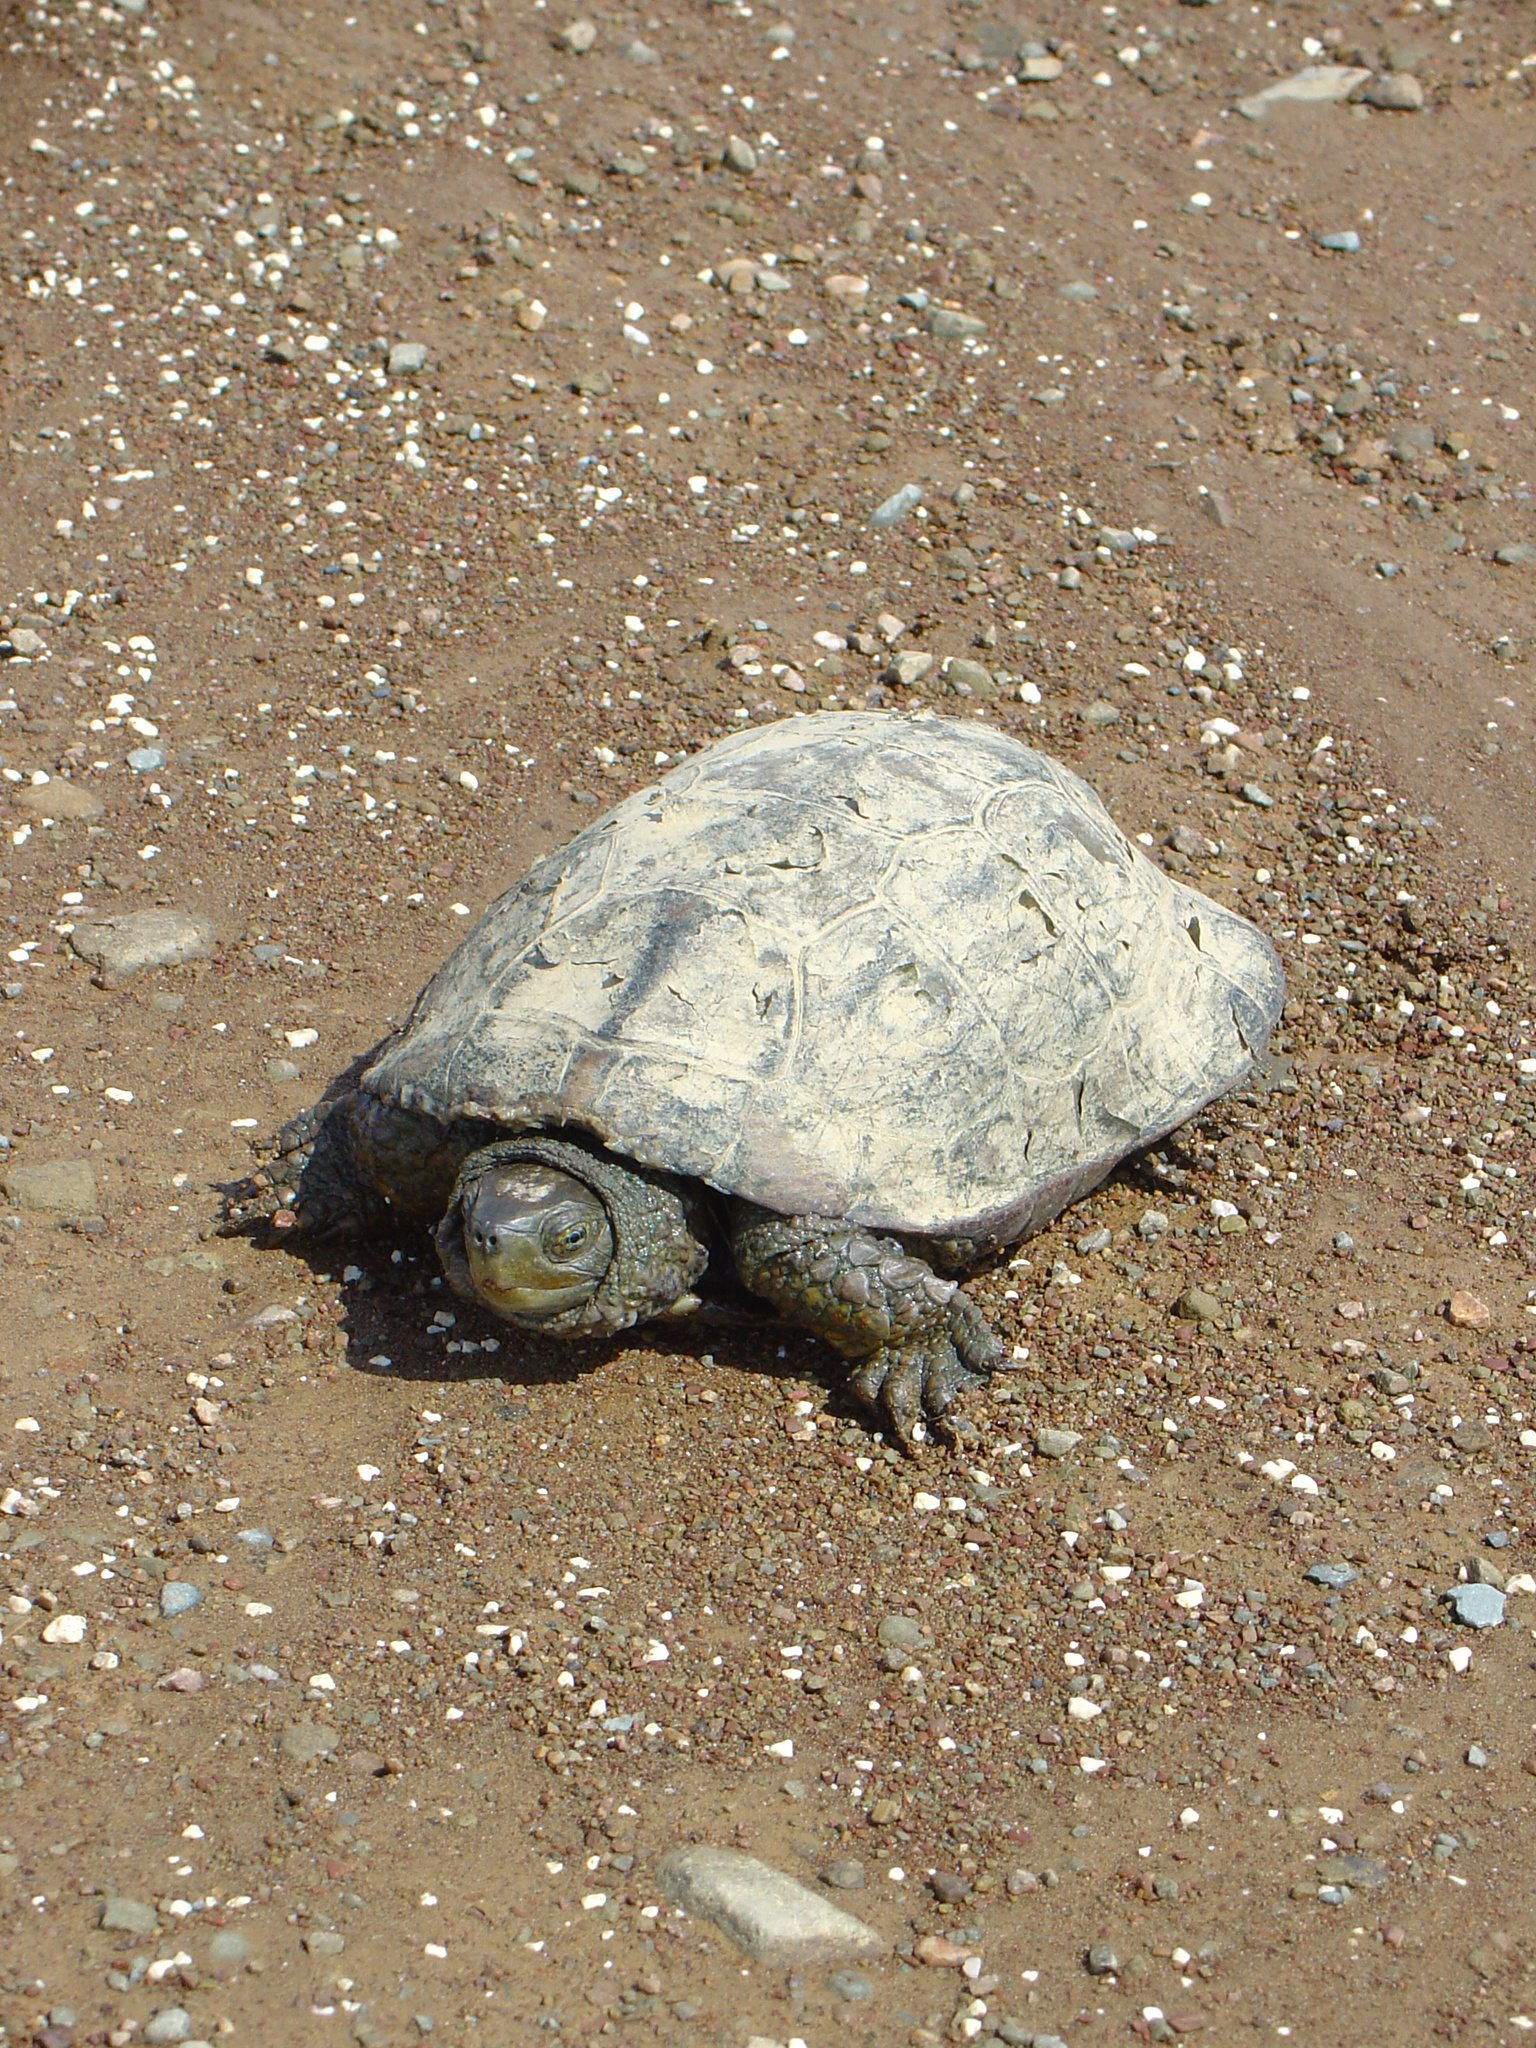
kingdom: Animalia
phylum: Chordata
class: Testudines
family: Geoemydidae
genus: Mauremys
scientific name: Mauremys leprosa
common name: Mediterranean pond turtle
